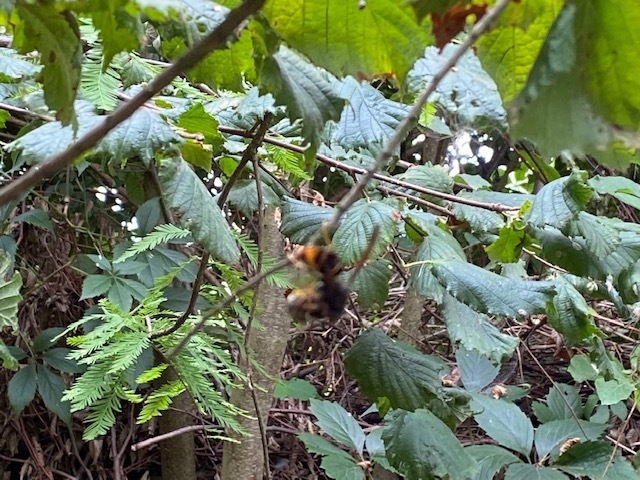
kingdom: Animalia
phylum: Arthropoda
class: Insecta
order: Hymenoptera
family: Vespidae
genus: Vespa
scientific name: Vespa velutina
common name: Asian hornet
